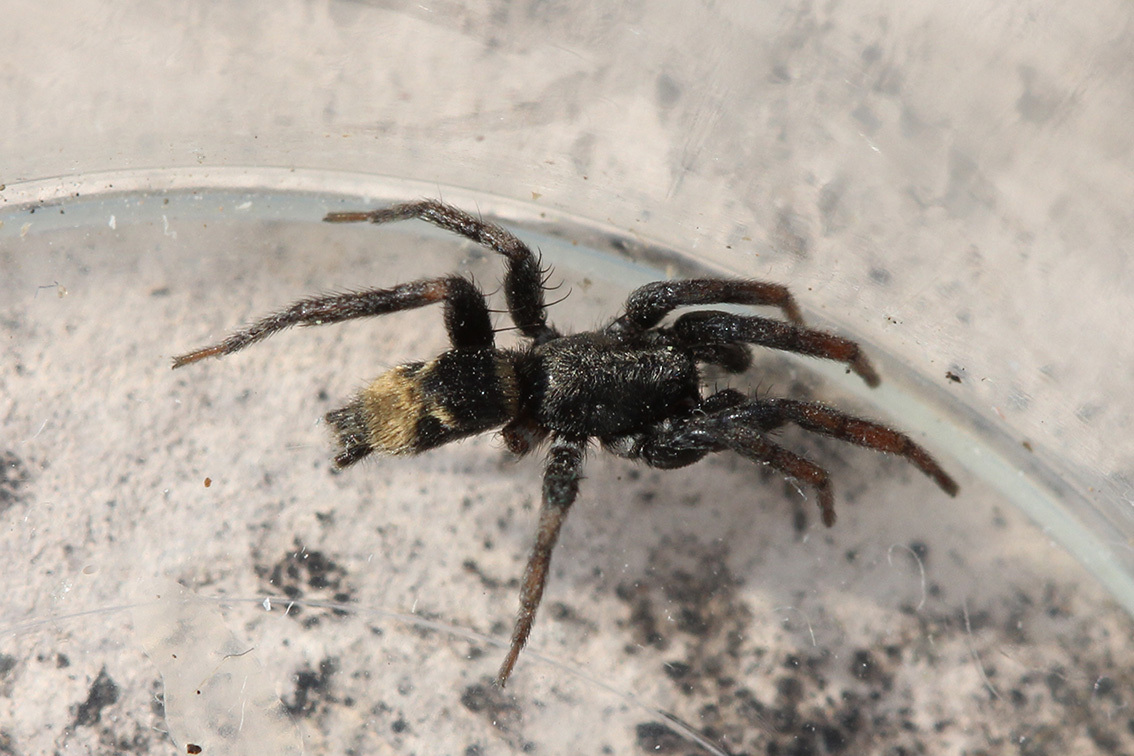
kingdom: Animalia
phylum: Arthropoda
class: Arachnida
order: Araneae
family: Gnaphosidae
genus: Latonigena
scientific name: Latonigena auricomis
